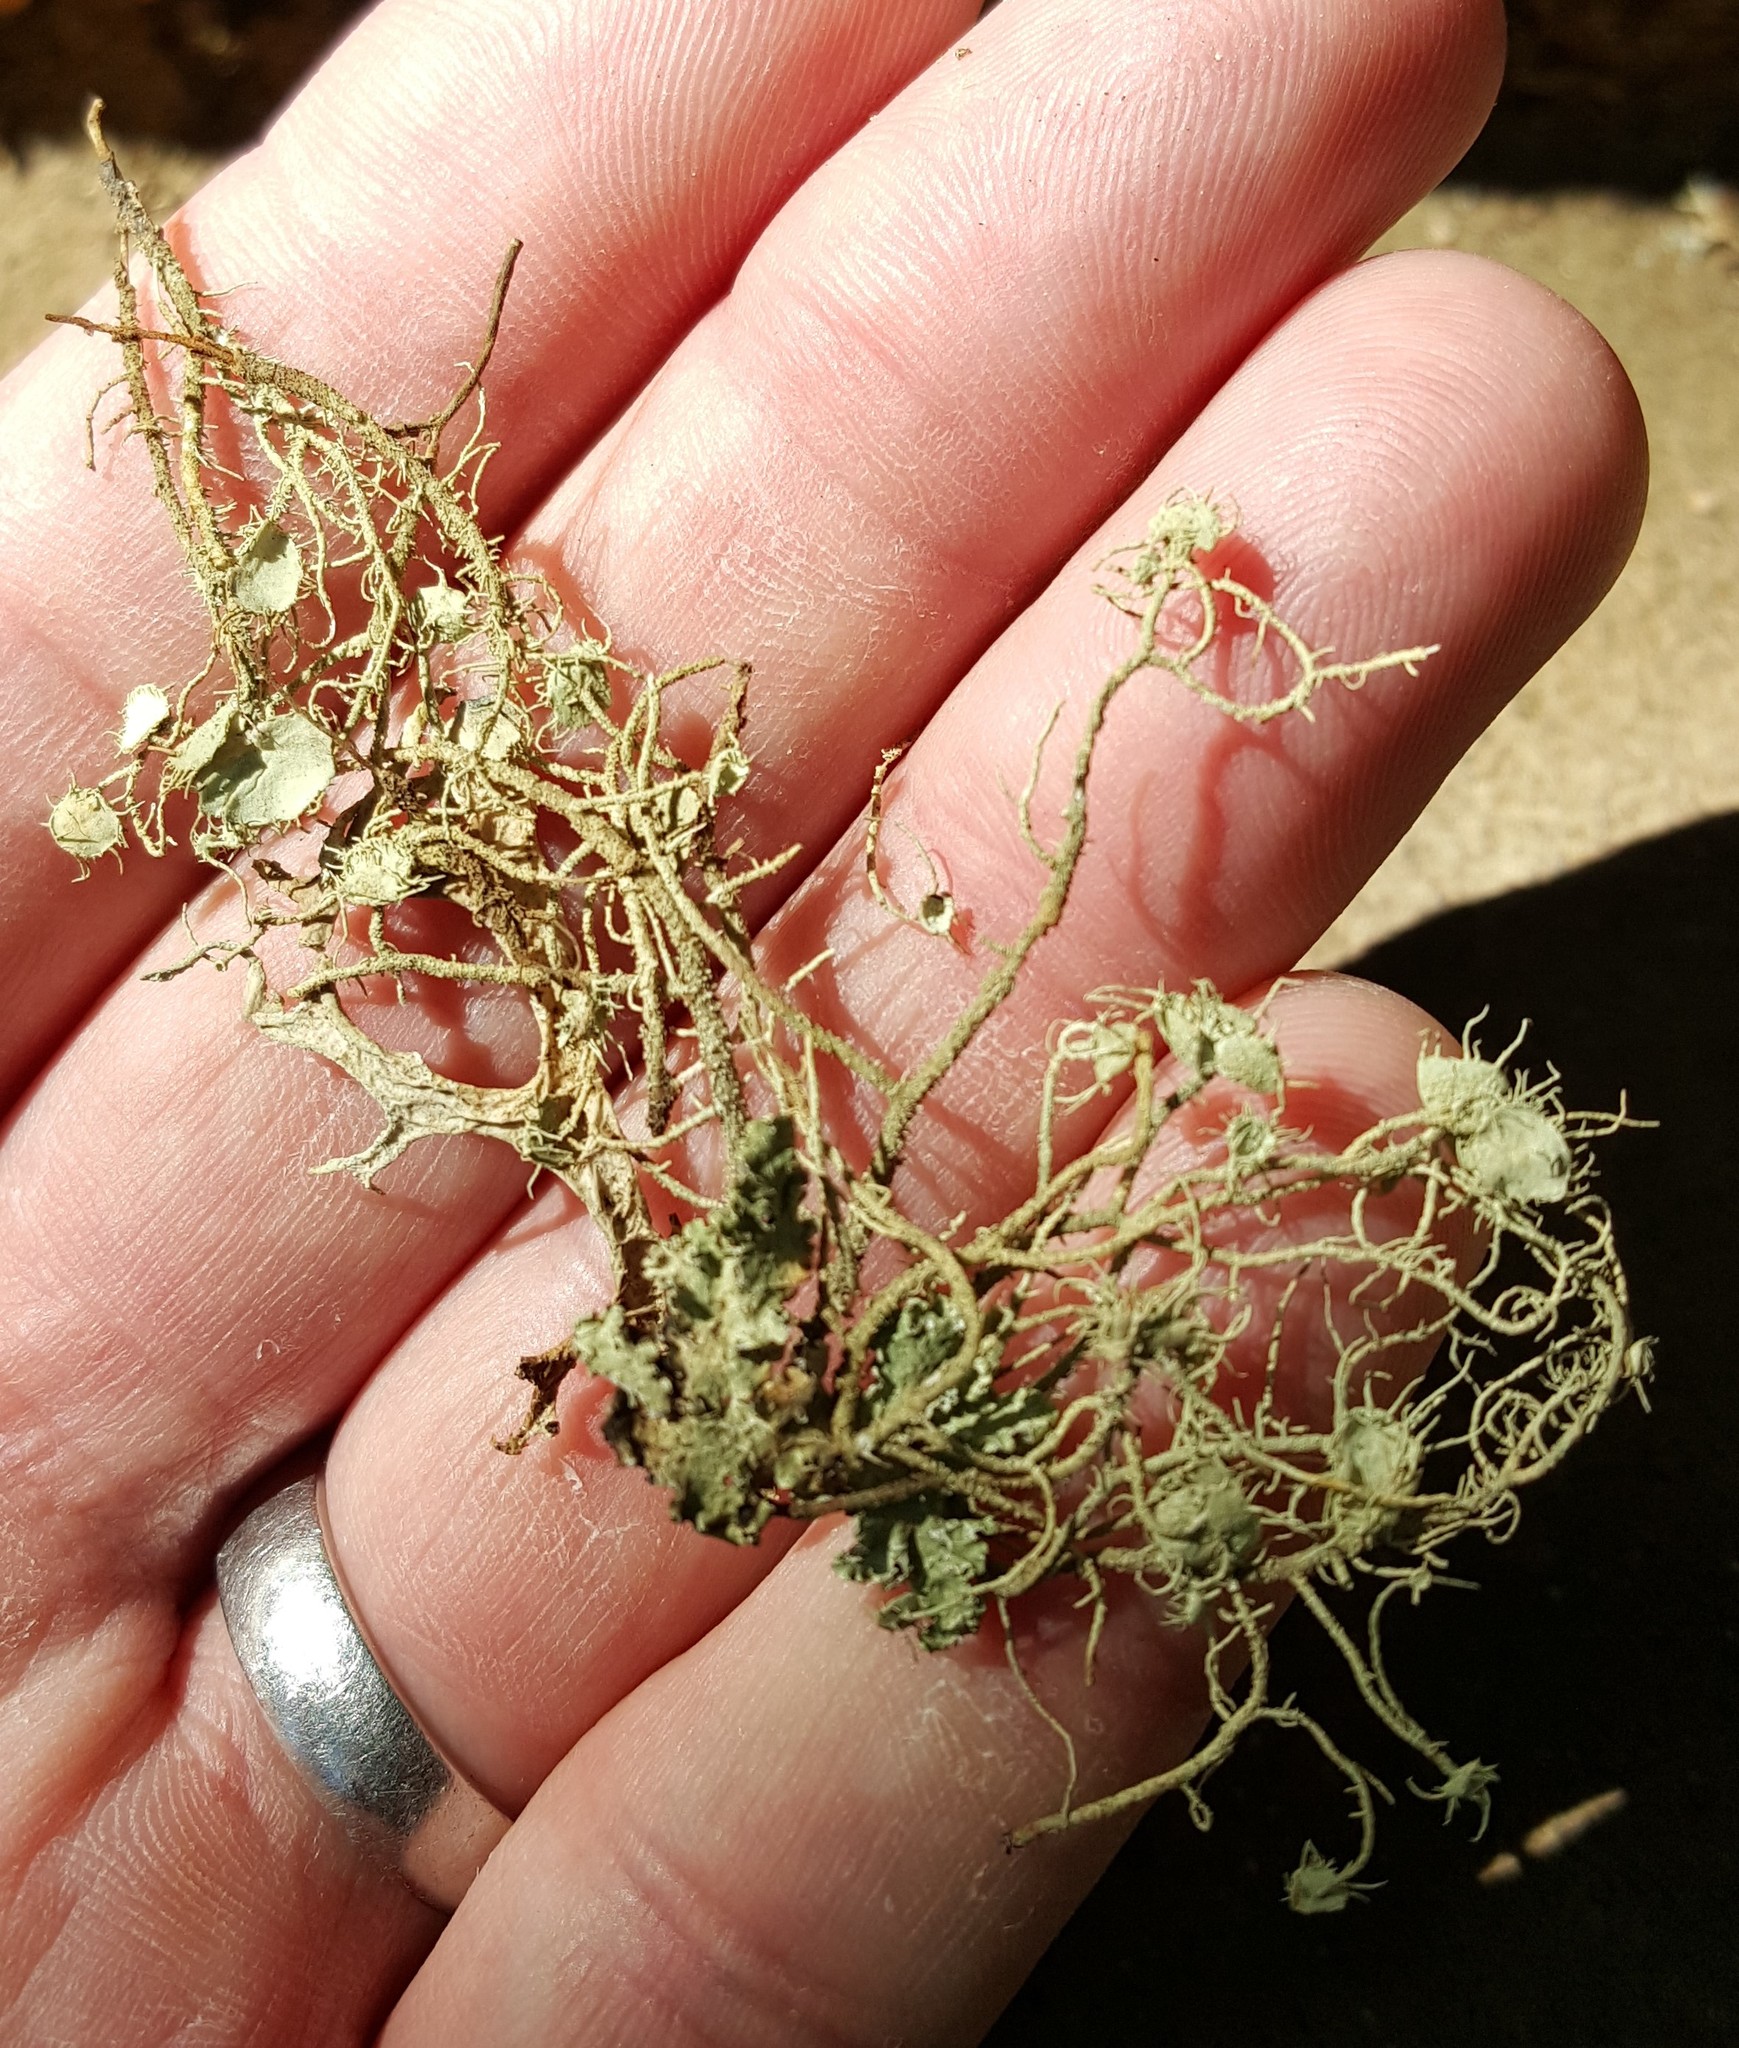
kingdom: Fungi
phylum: Ascomycota
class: Lecanoromycetes
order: Lecanorales
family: Parmeliaceae
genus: Usnea
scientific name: Usnea intermedia
